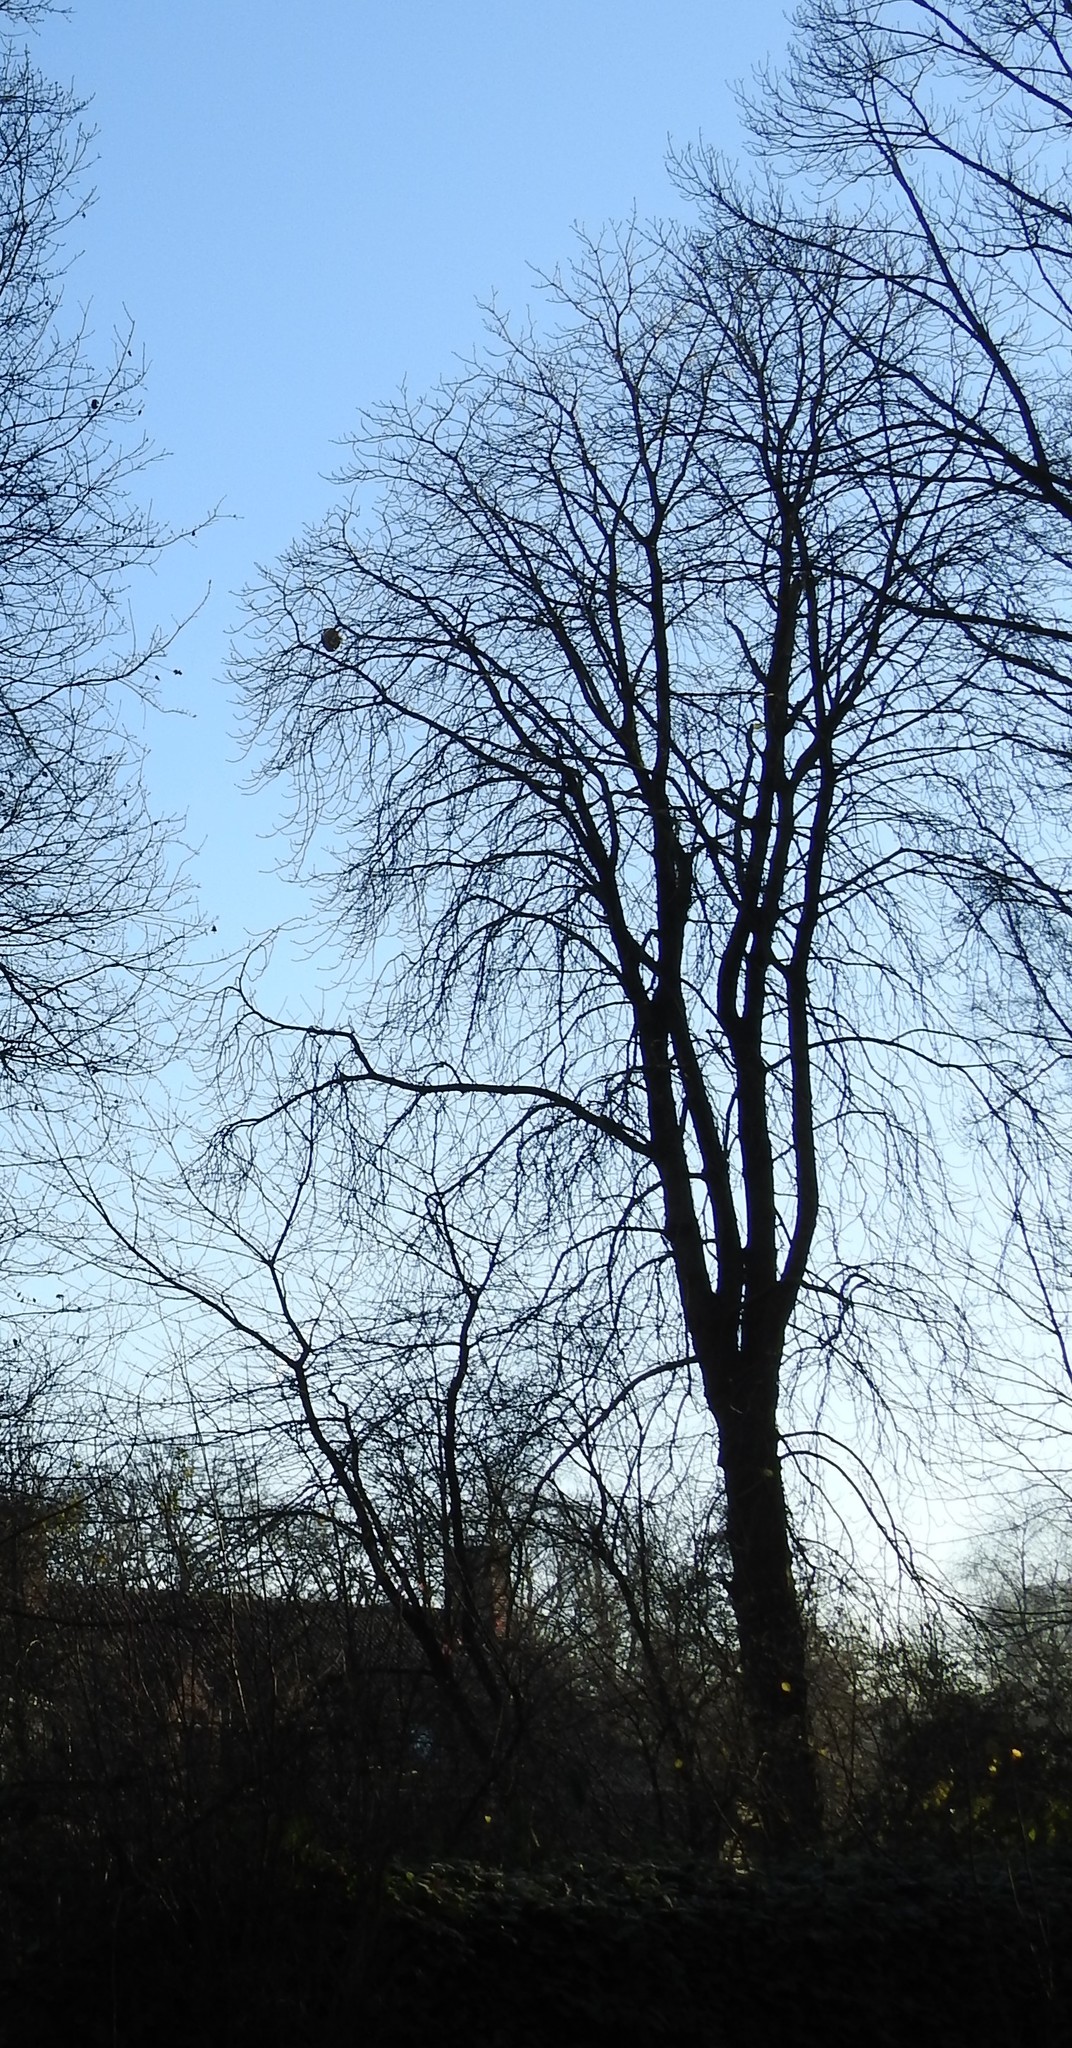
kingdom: Animalia
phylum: Arthropoda
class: Insecta
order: Hymenoptera
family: Vespidae
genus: Vespa
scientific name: Vespa velutina
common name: Asian hornet
